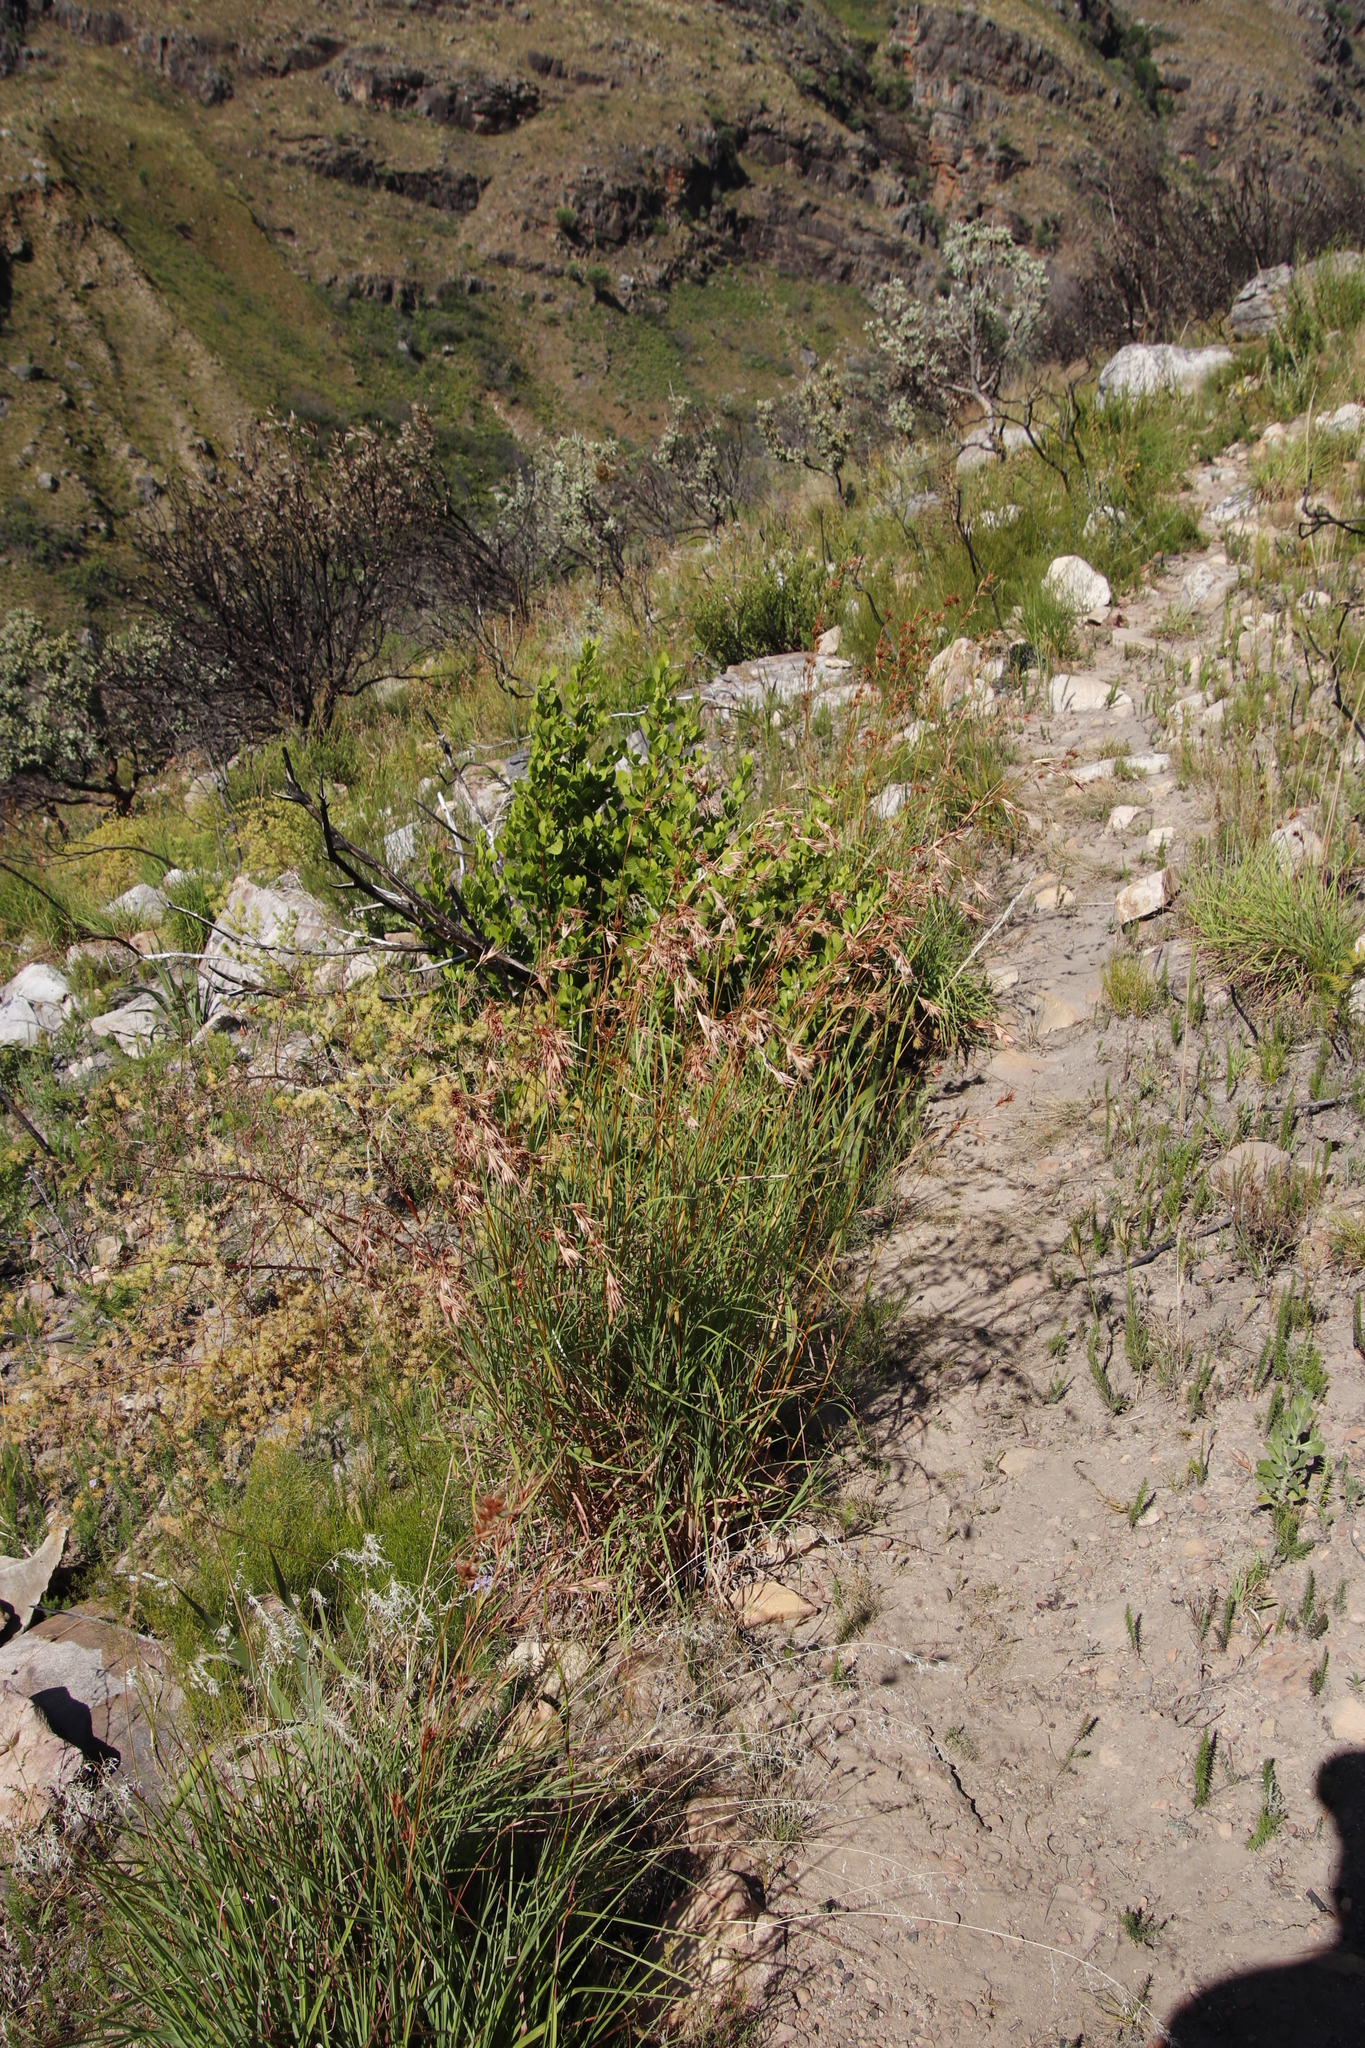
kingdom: Plantae
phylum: Tracheophyta
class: Liliopsida
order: Poales
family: Poaceae
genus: Themeda
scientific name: Themeda triandra
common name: Kangaroo grass
